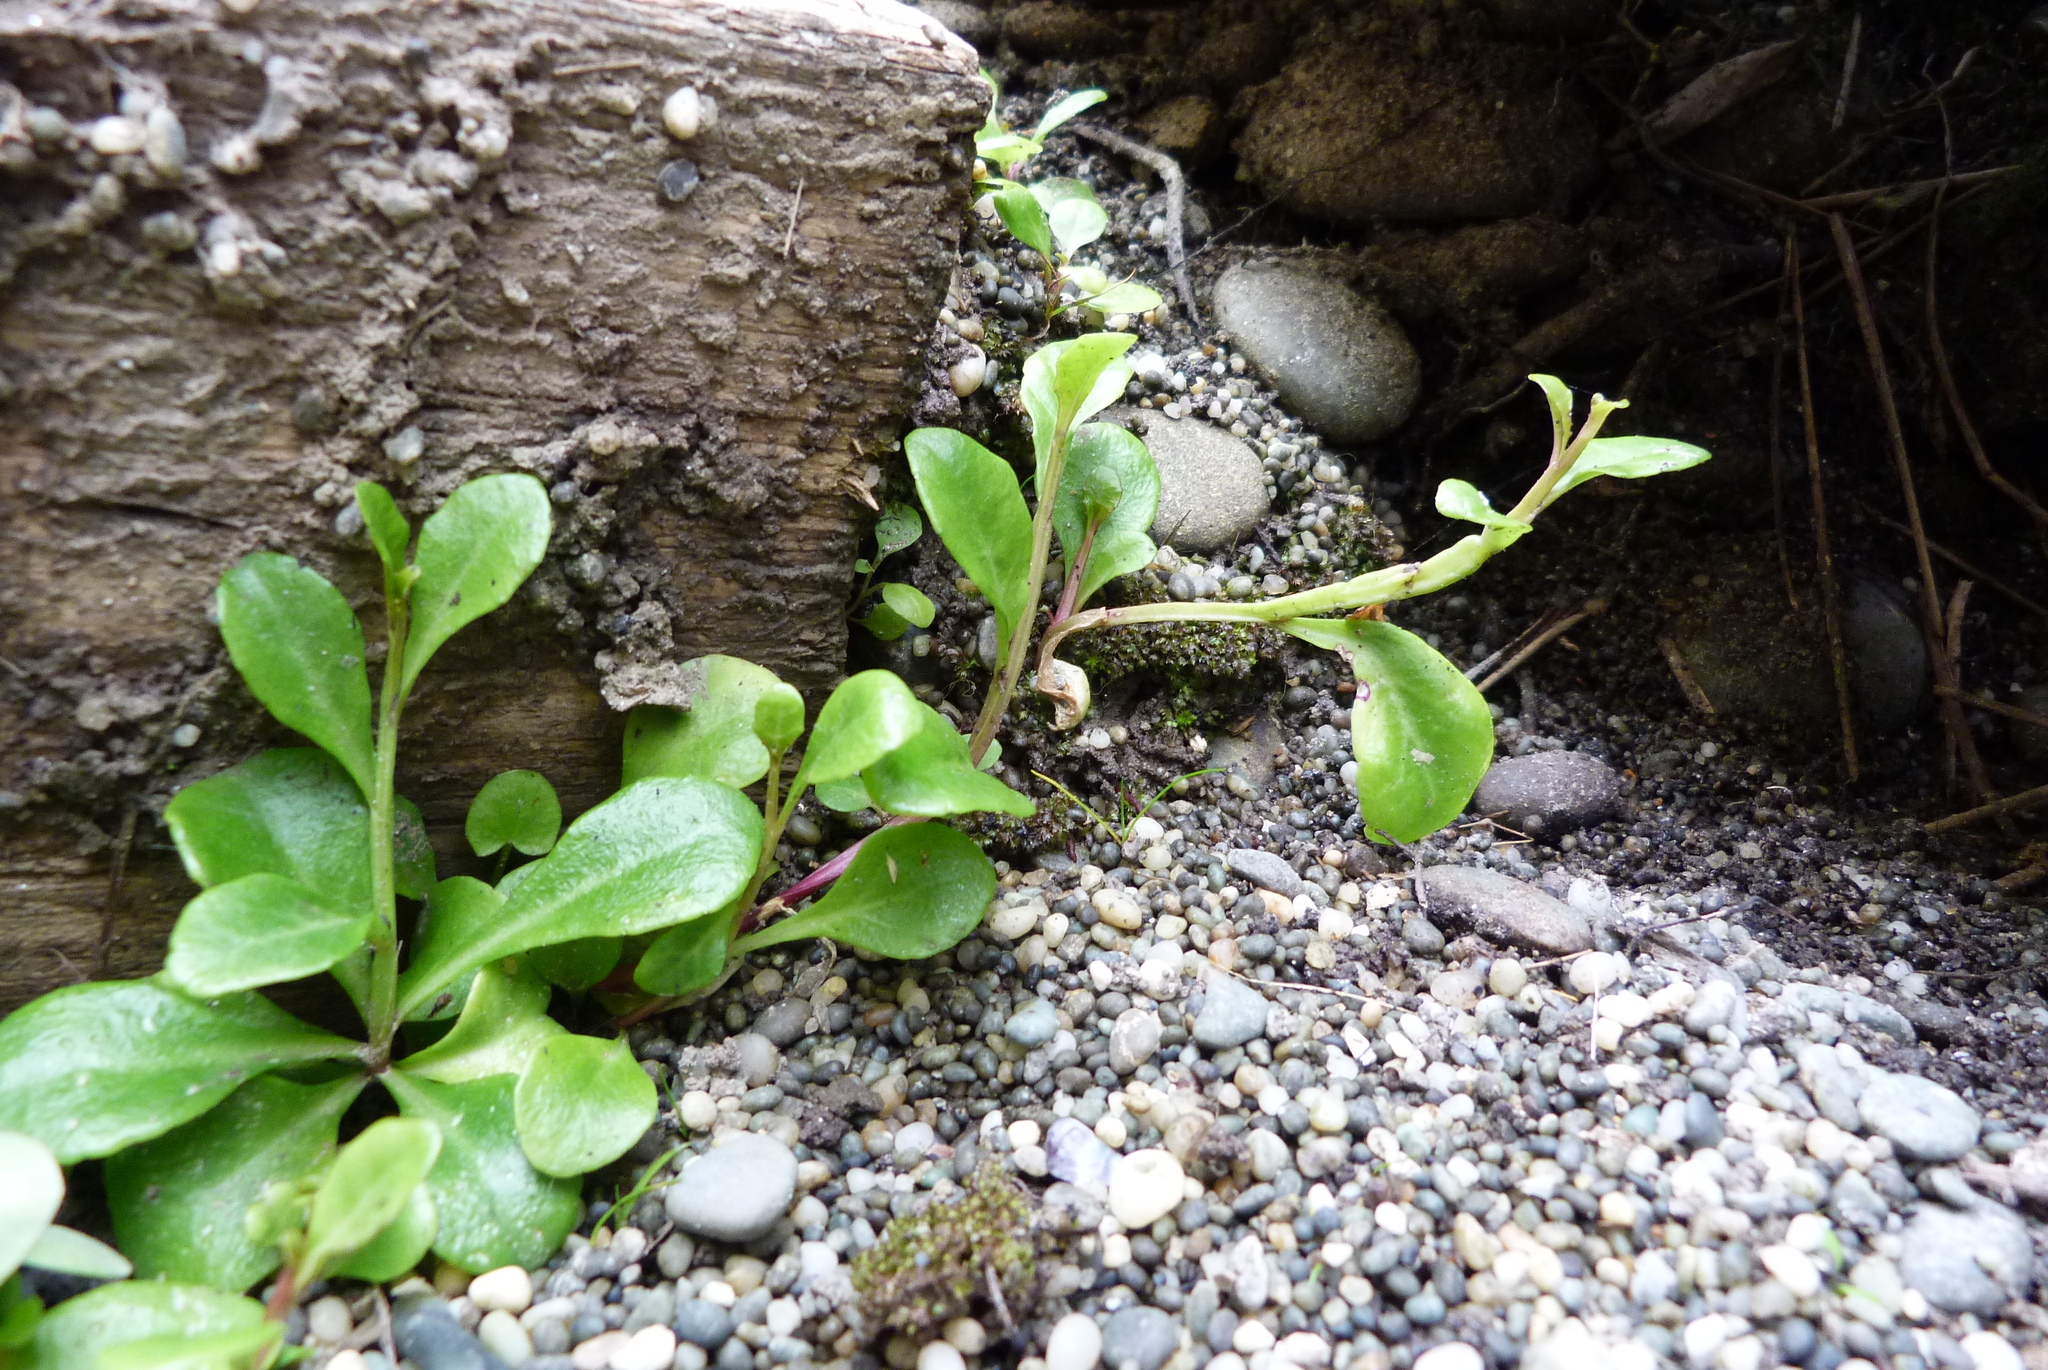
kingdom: Plantae
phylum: Tracheophyta
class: Magnoliopsida
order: Asterales
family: Campanulaceae
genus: Lobelia
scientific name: Lobelia anceps
